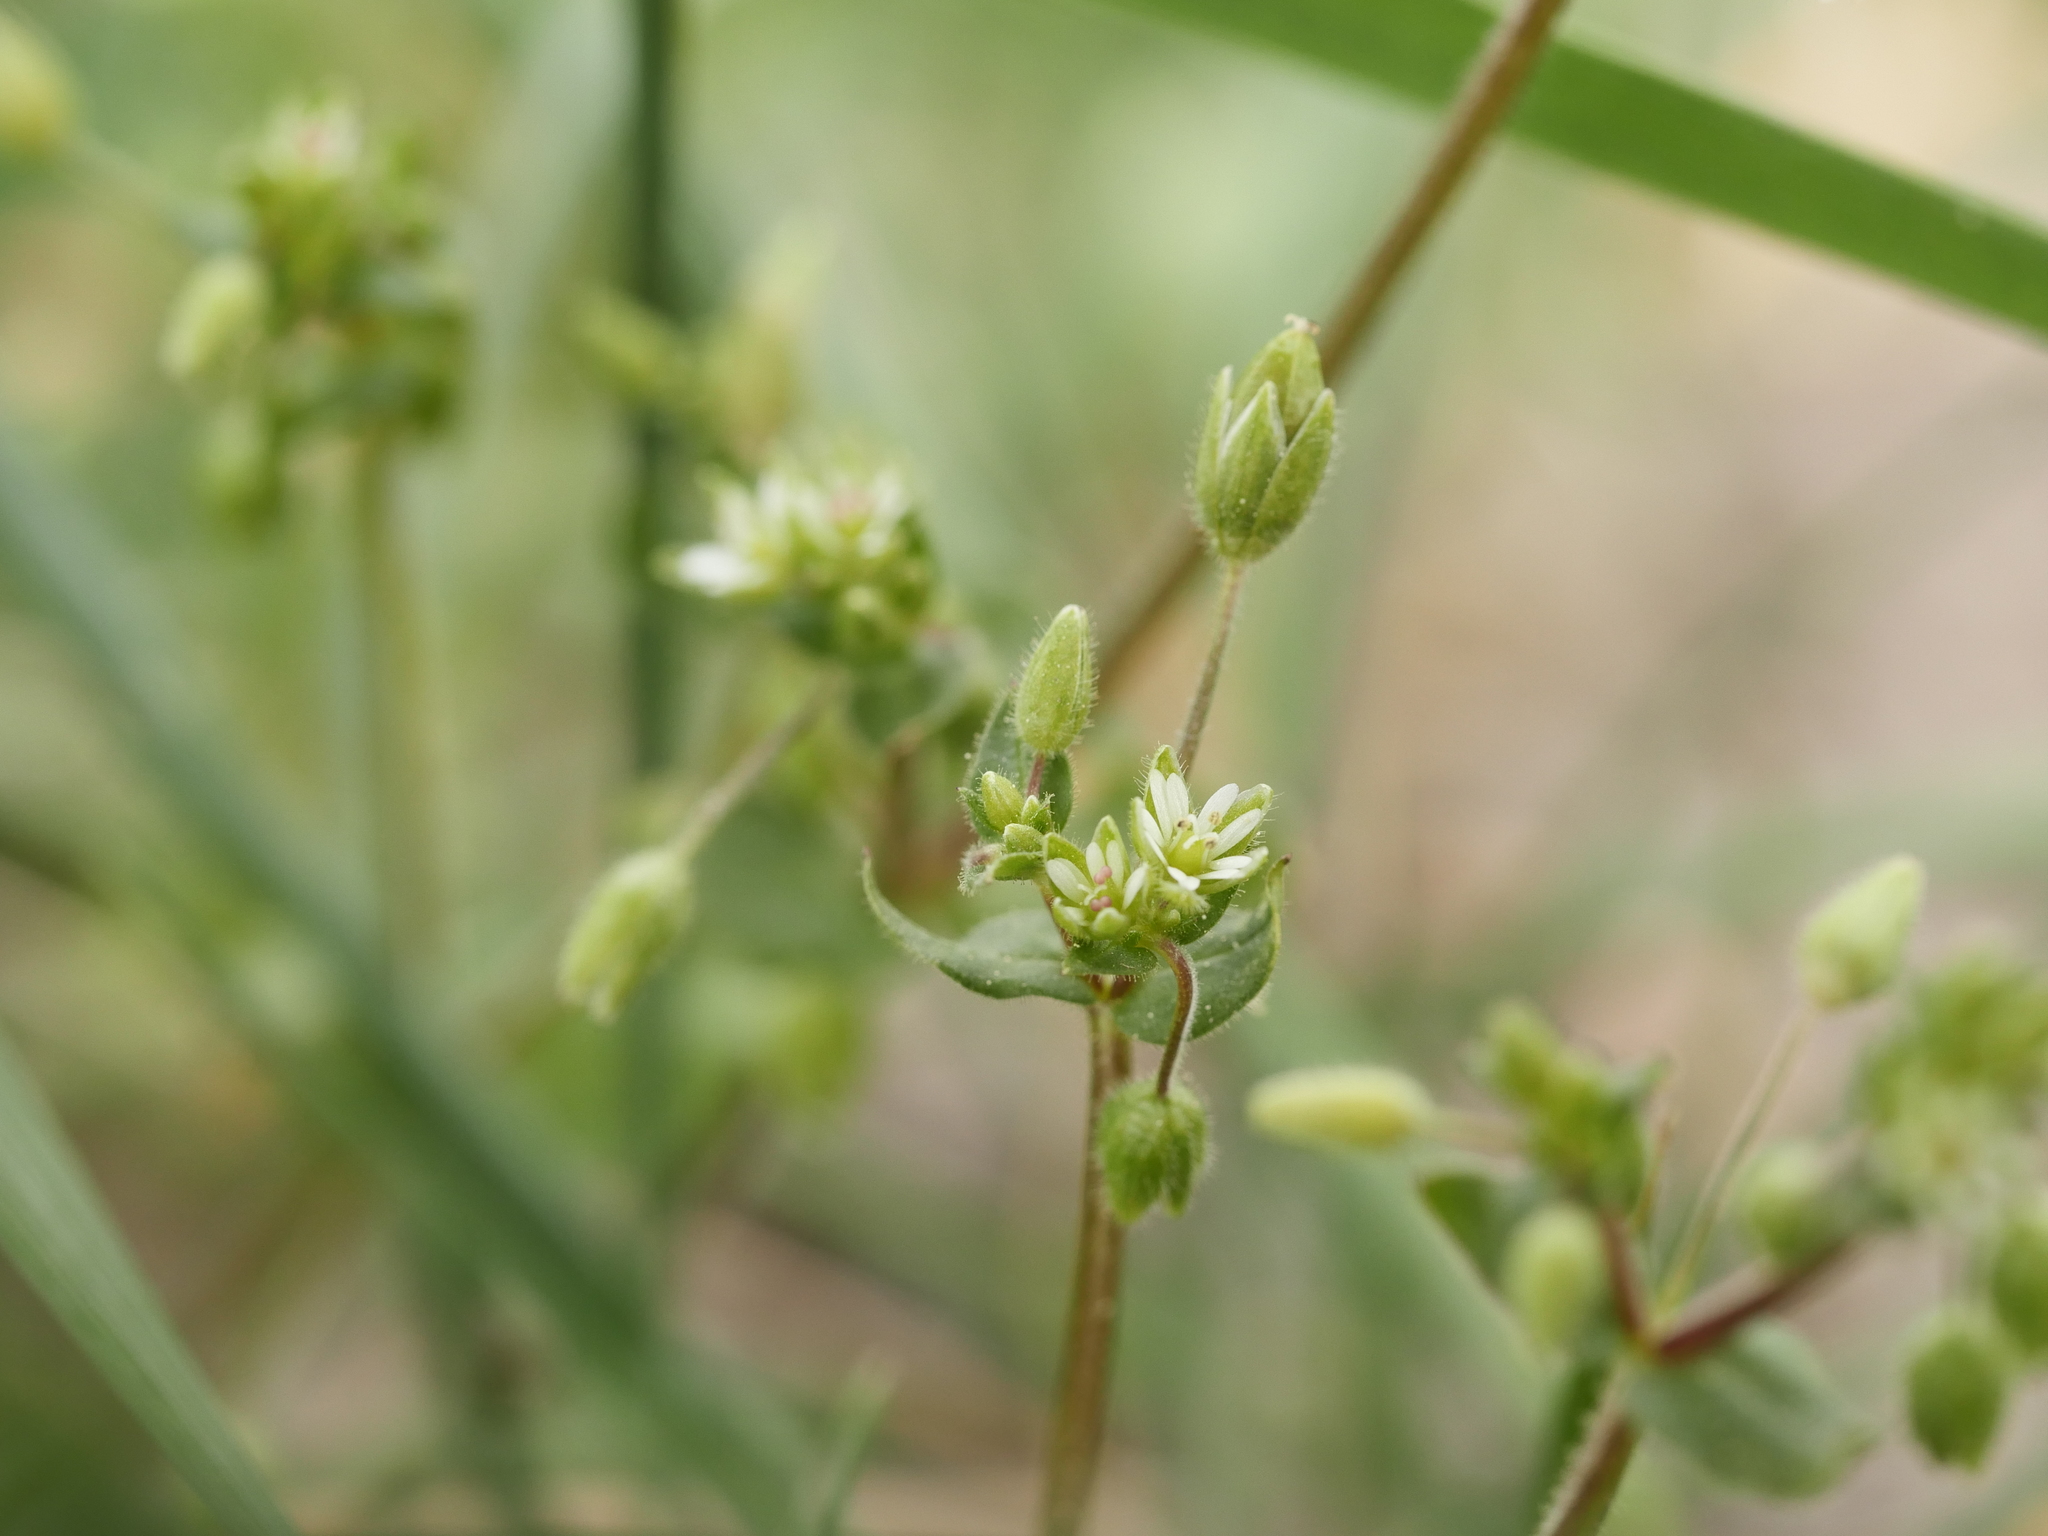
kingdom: Plantae
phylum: Tracheophyta
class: Magnoliopsida
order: Caryophyllales
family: Caryophyllaceae
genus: Stellaria
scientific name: Stellaria media
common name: Common chickweed
